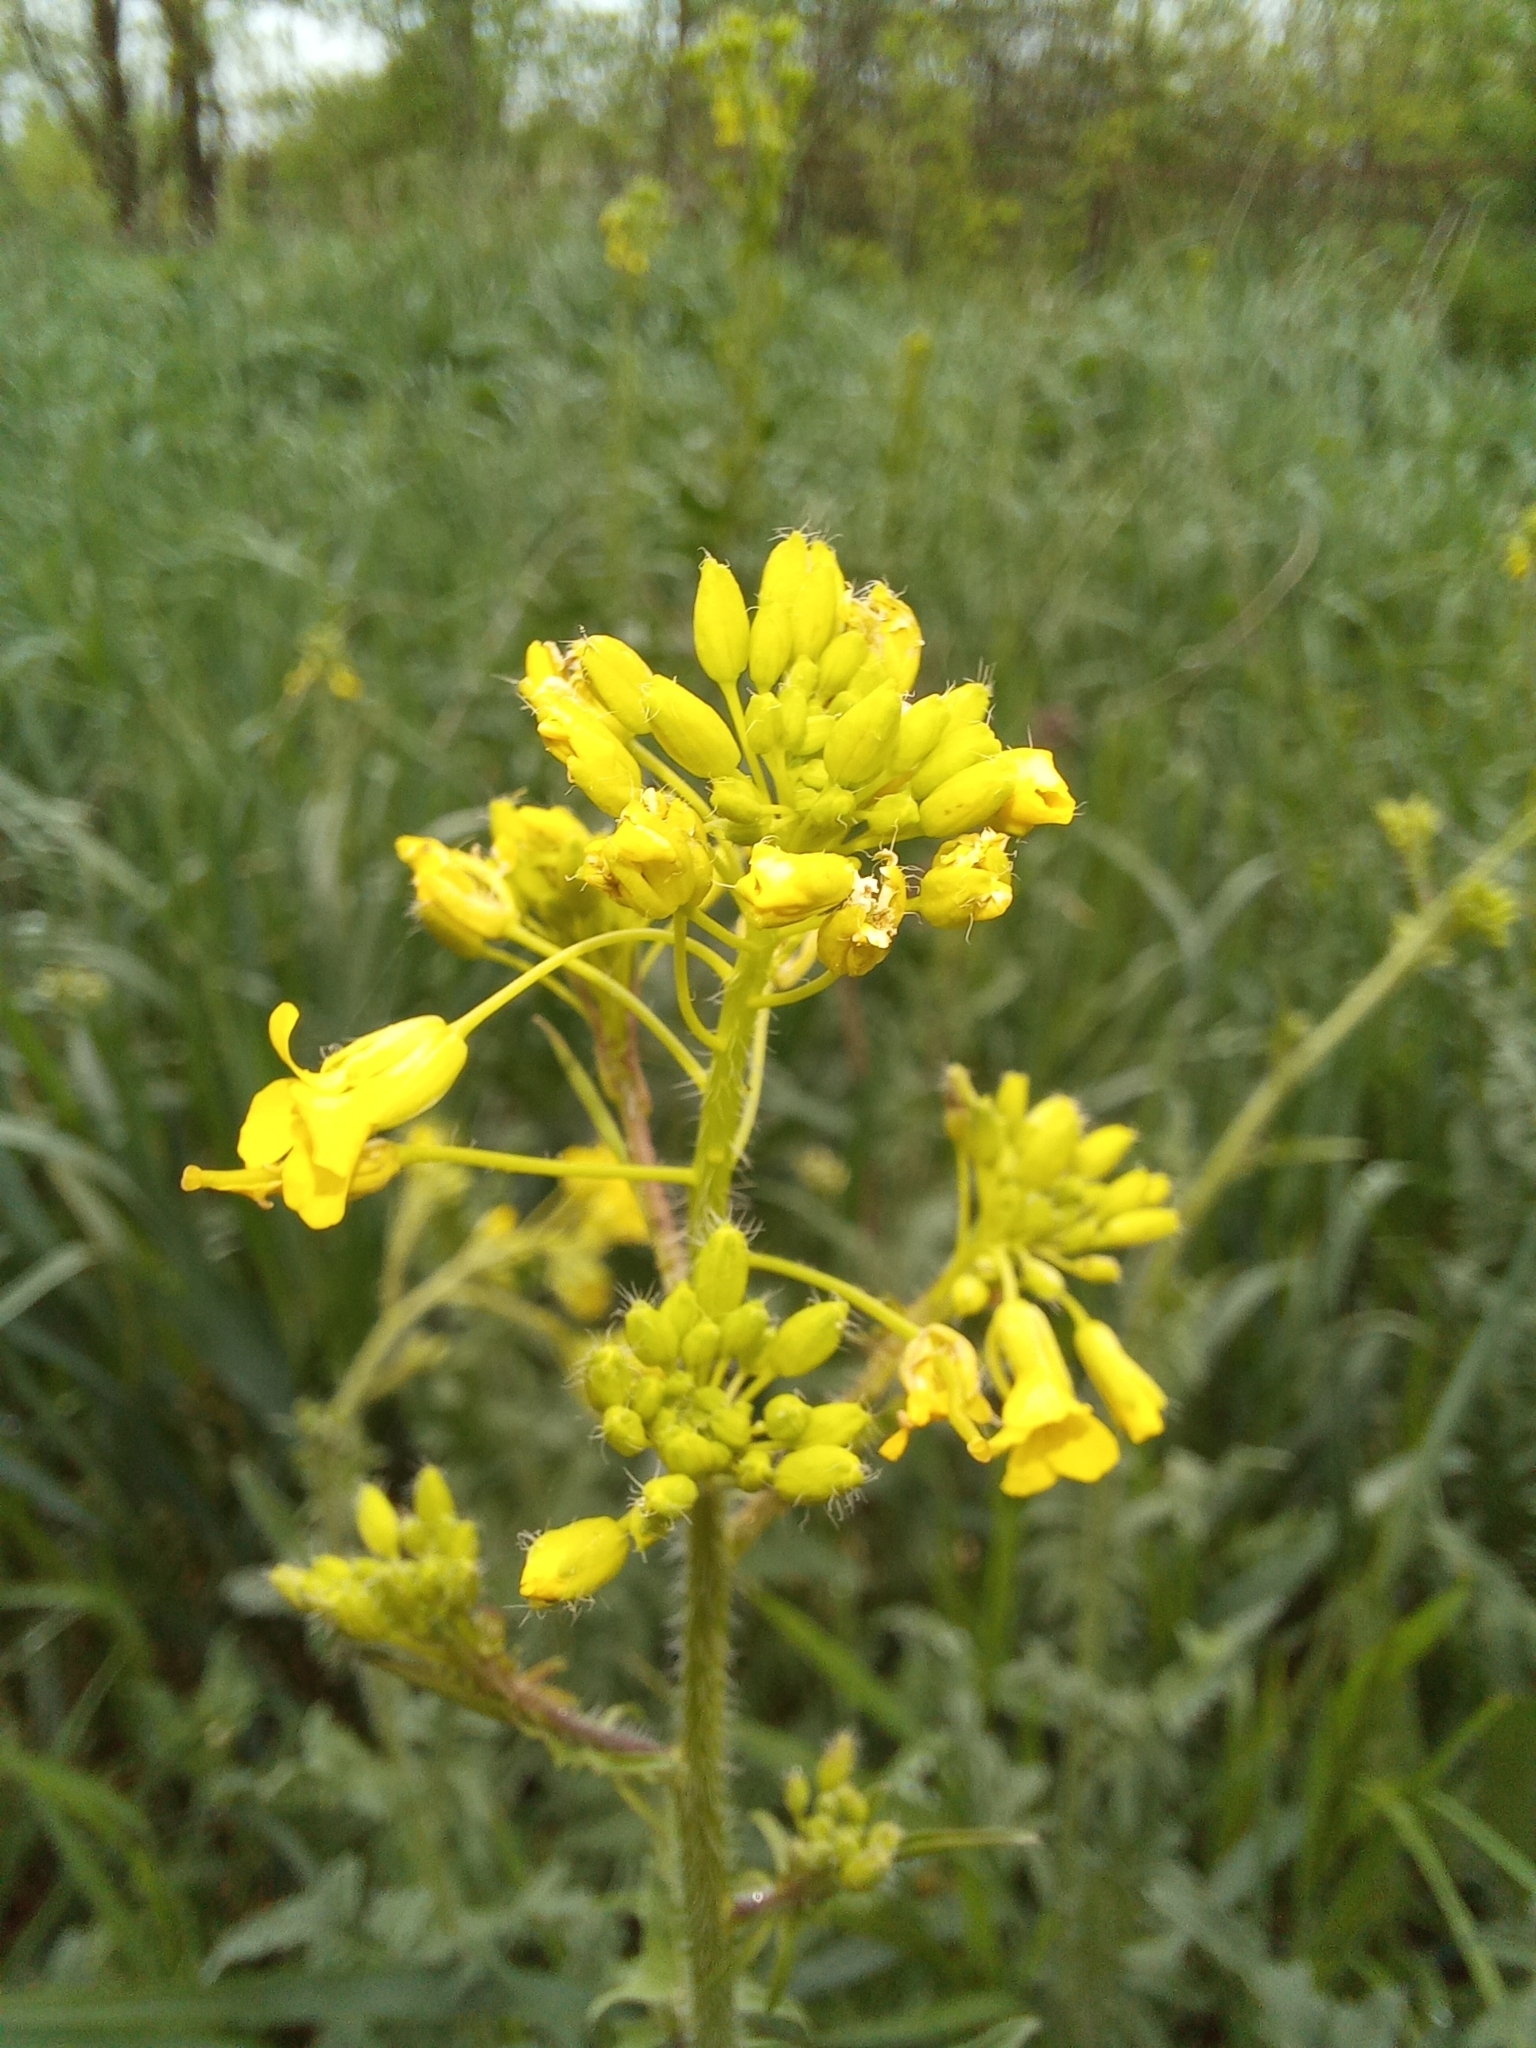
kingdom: Plantae
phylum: Tracheophyta
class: Magnoliopsida
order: Brassicales
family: Brassicaceae
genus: Sisymbrium
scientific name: Sisymbrium loeselii
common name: False london-rocket
